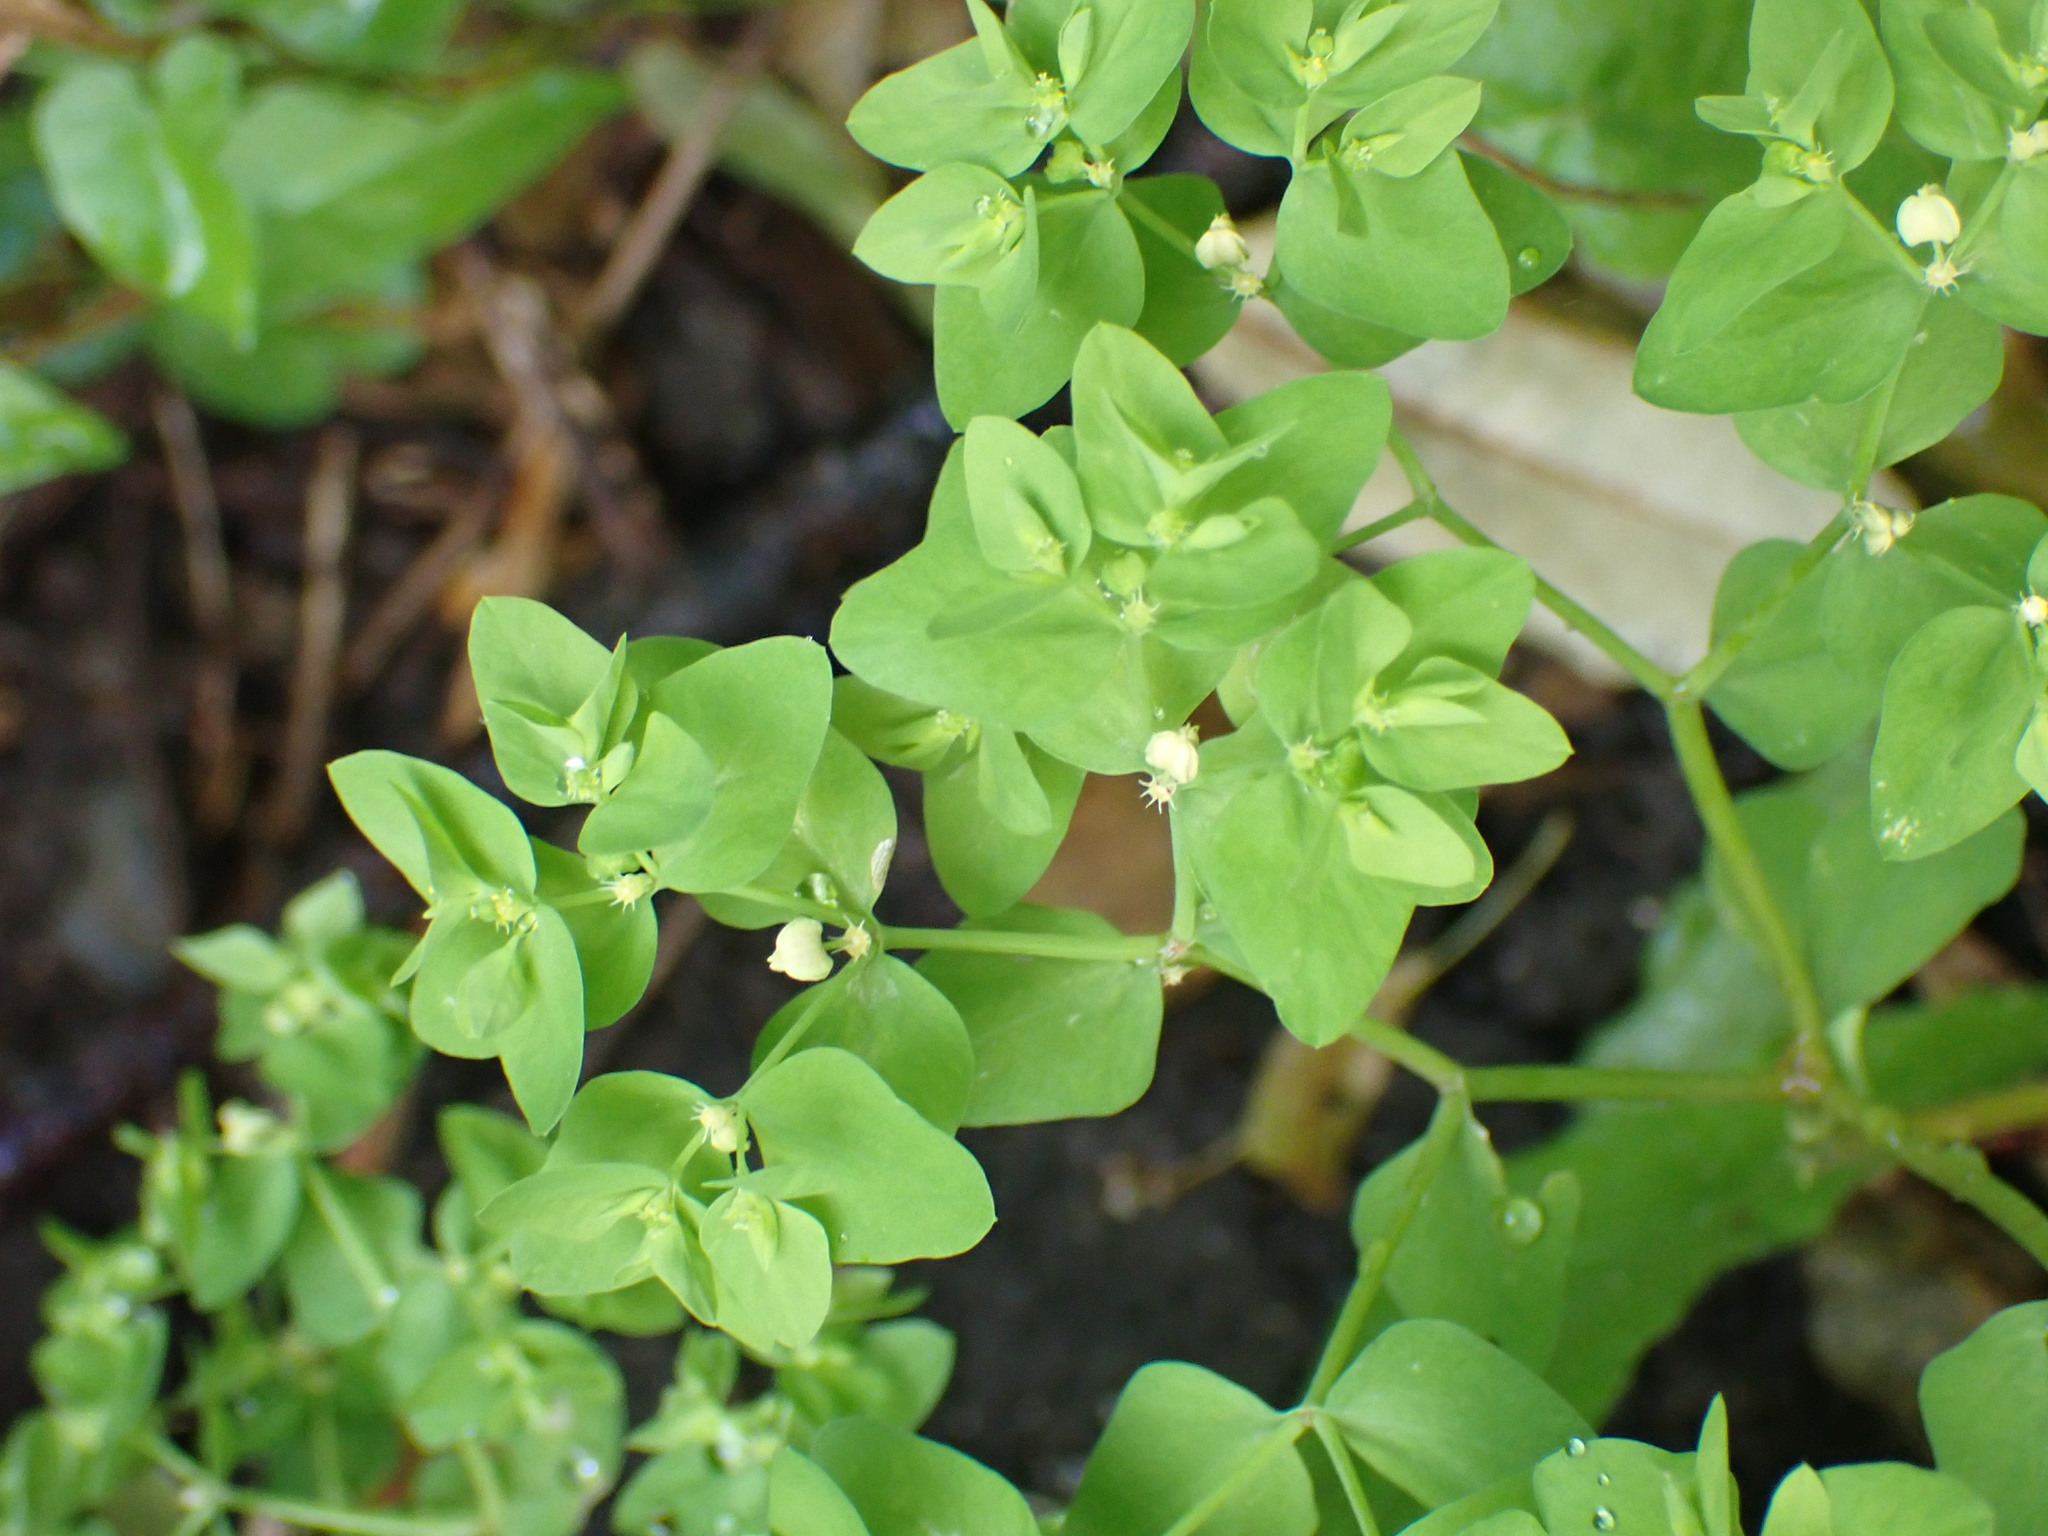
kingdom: Plantae
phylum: Tracheophyta
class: Magnoliopsida
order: Malpighiales
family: Euphorbiaceae
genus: Euphorbia
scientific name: Euphorbia peplus
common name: Petty spurge
